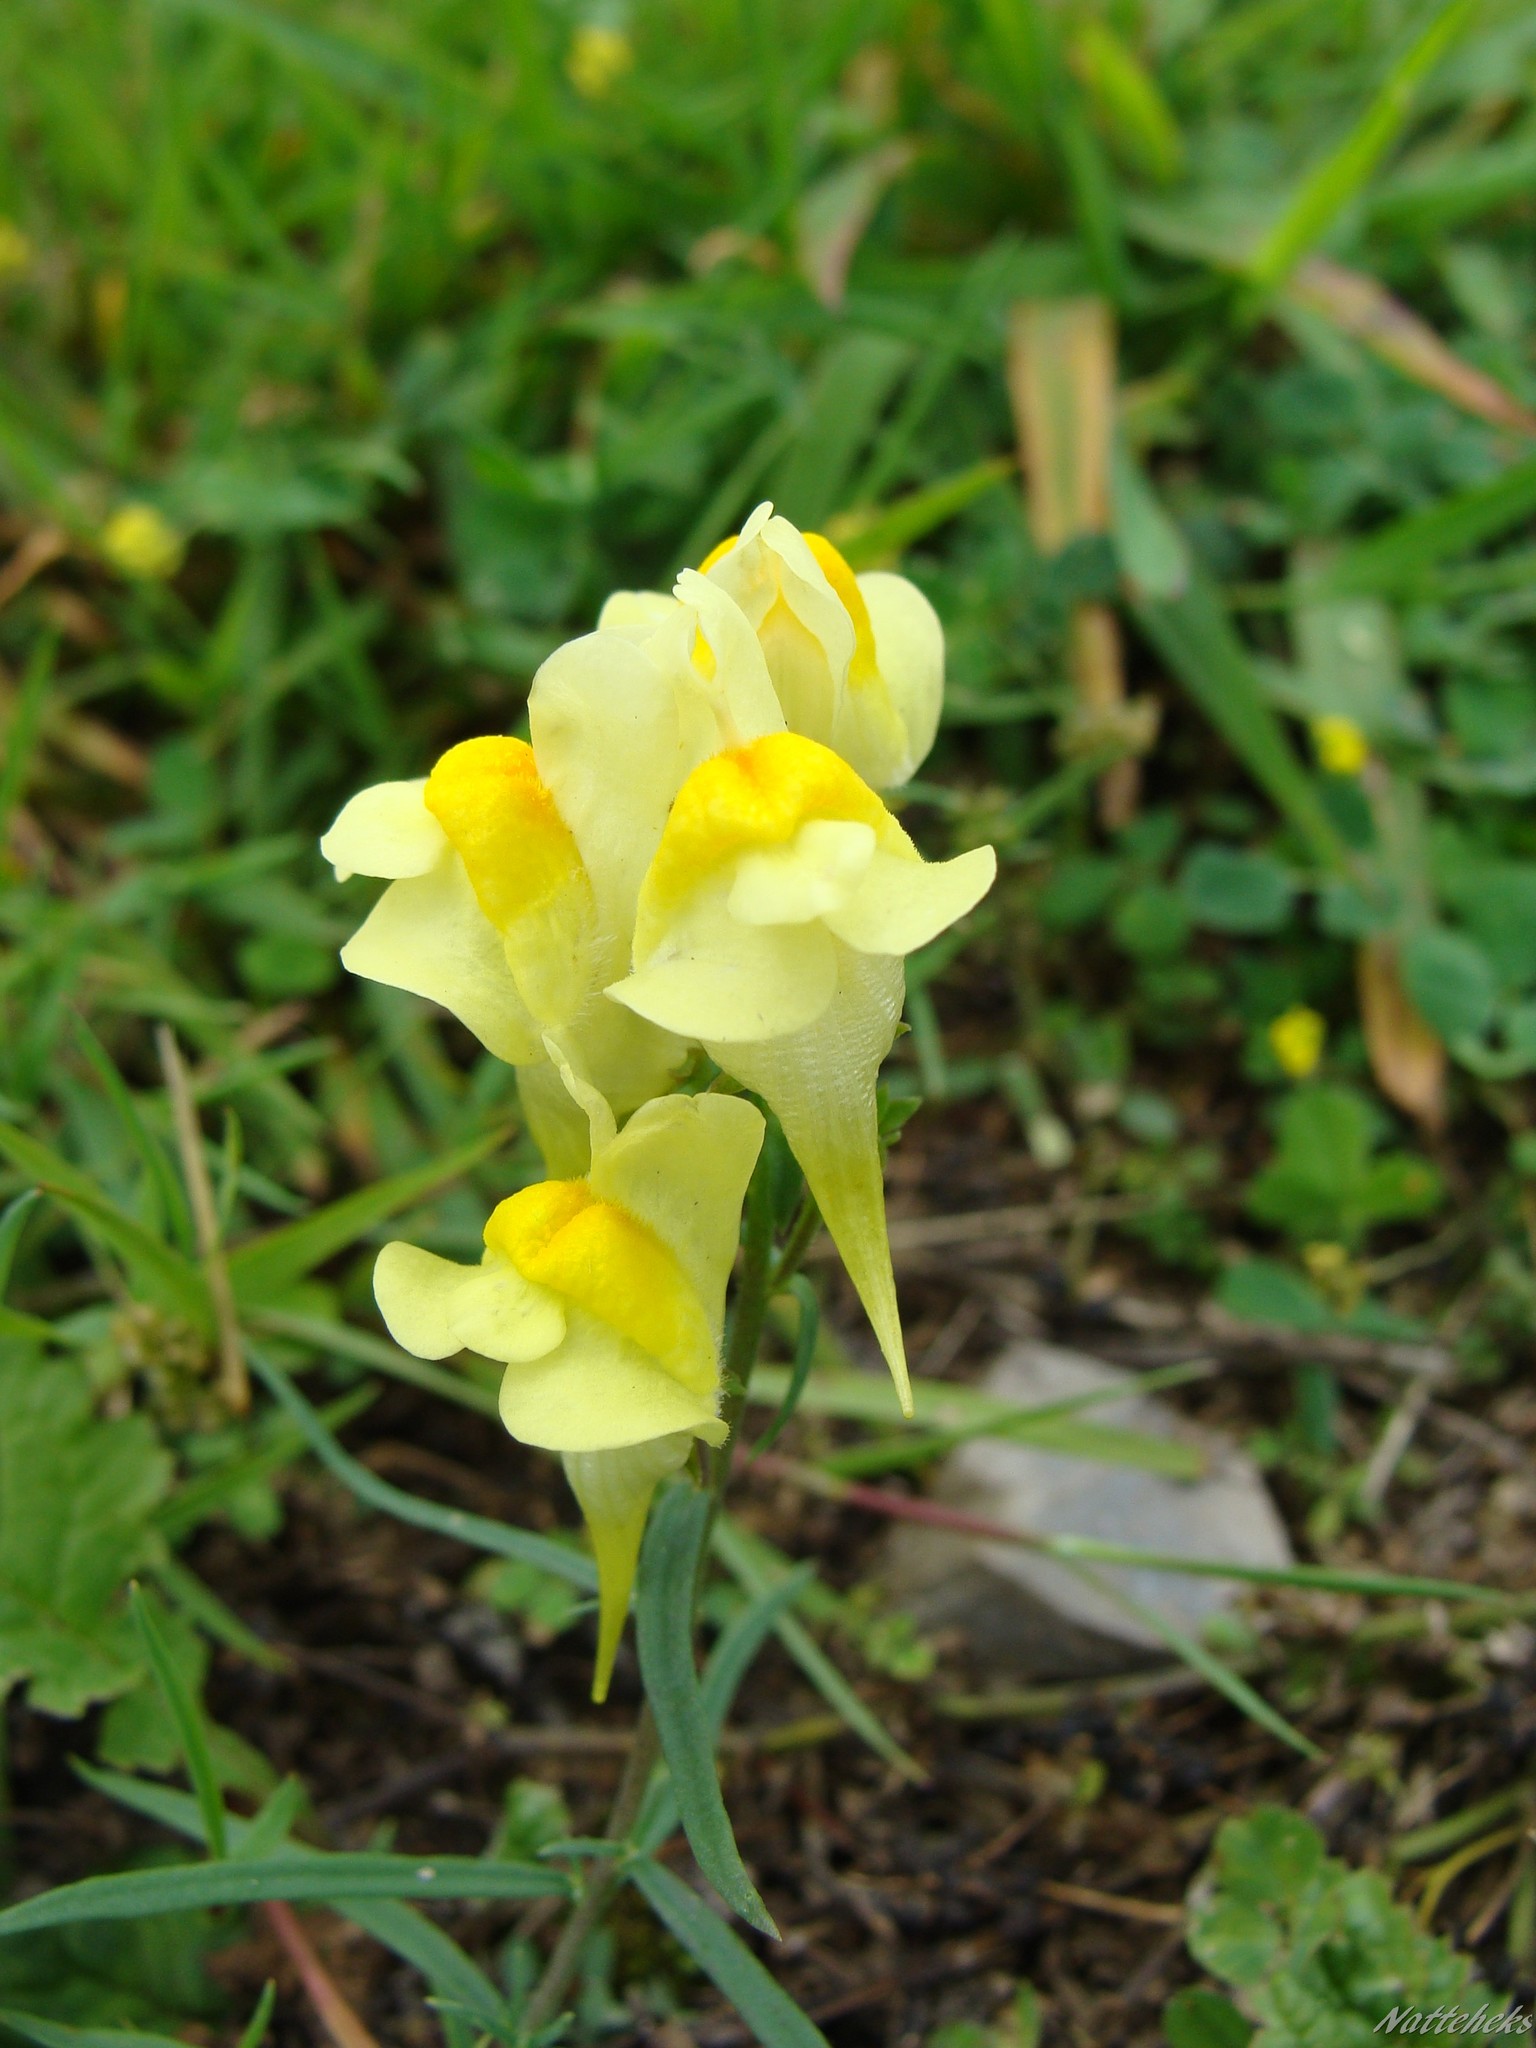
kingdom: Plantae
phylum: Tracheophyta
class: Magnoliopsida
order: Lamiales
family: Plantaginaceae
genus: Linaria
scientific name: Linaria vulgaris
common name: Butter and eggs
